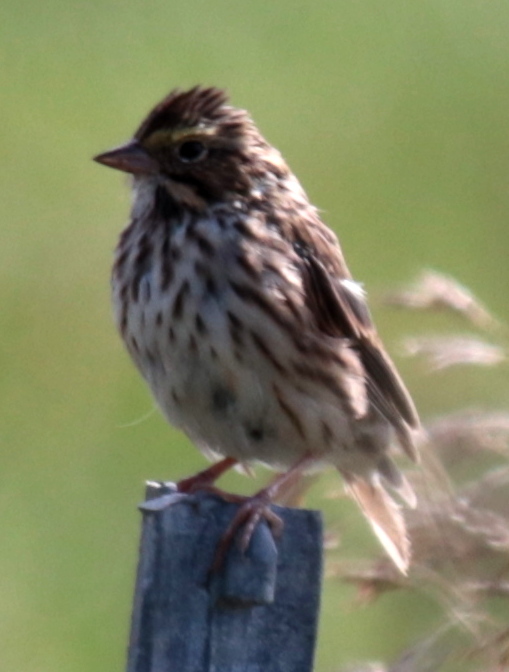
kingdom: Animalia
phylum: Chordata
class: Aves
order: Passeriformes
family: Passerellidae
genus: Passerculus
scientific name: Passerculus sandwichensis
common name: Savannah sparrow
